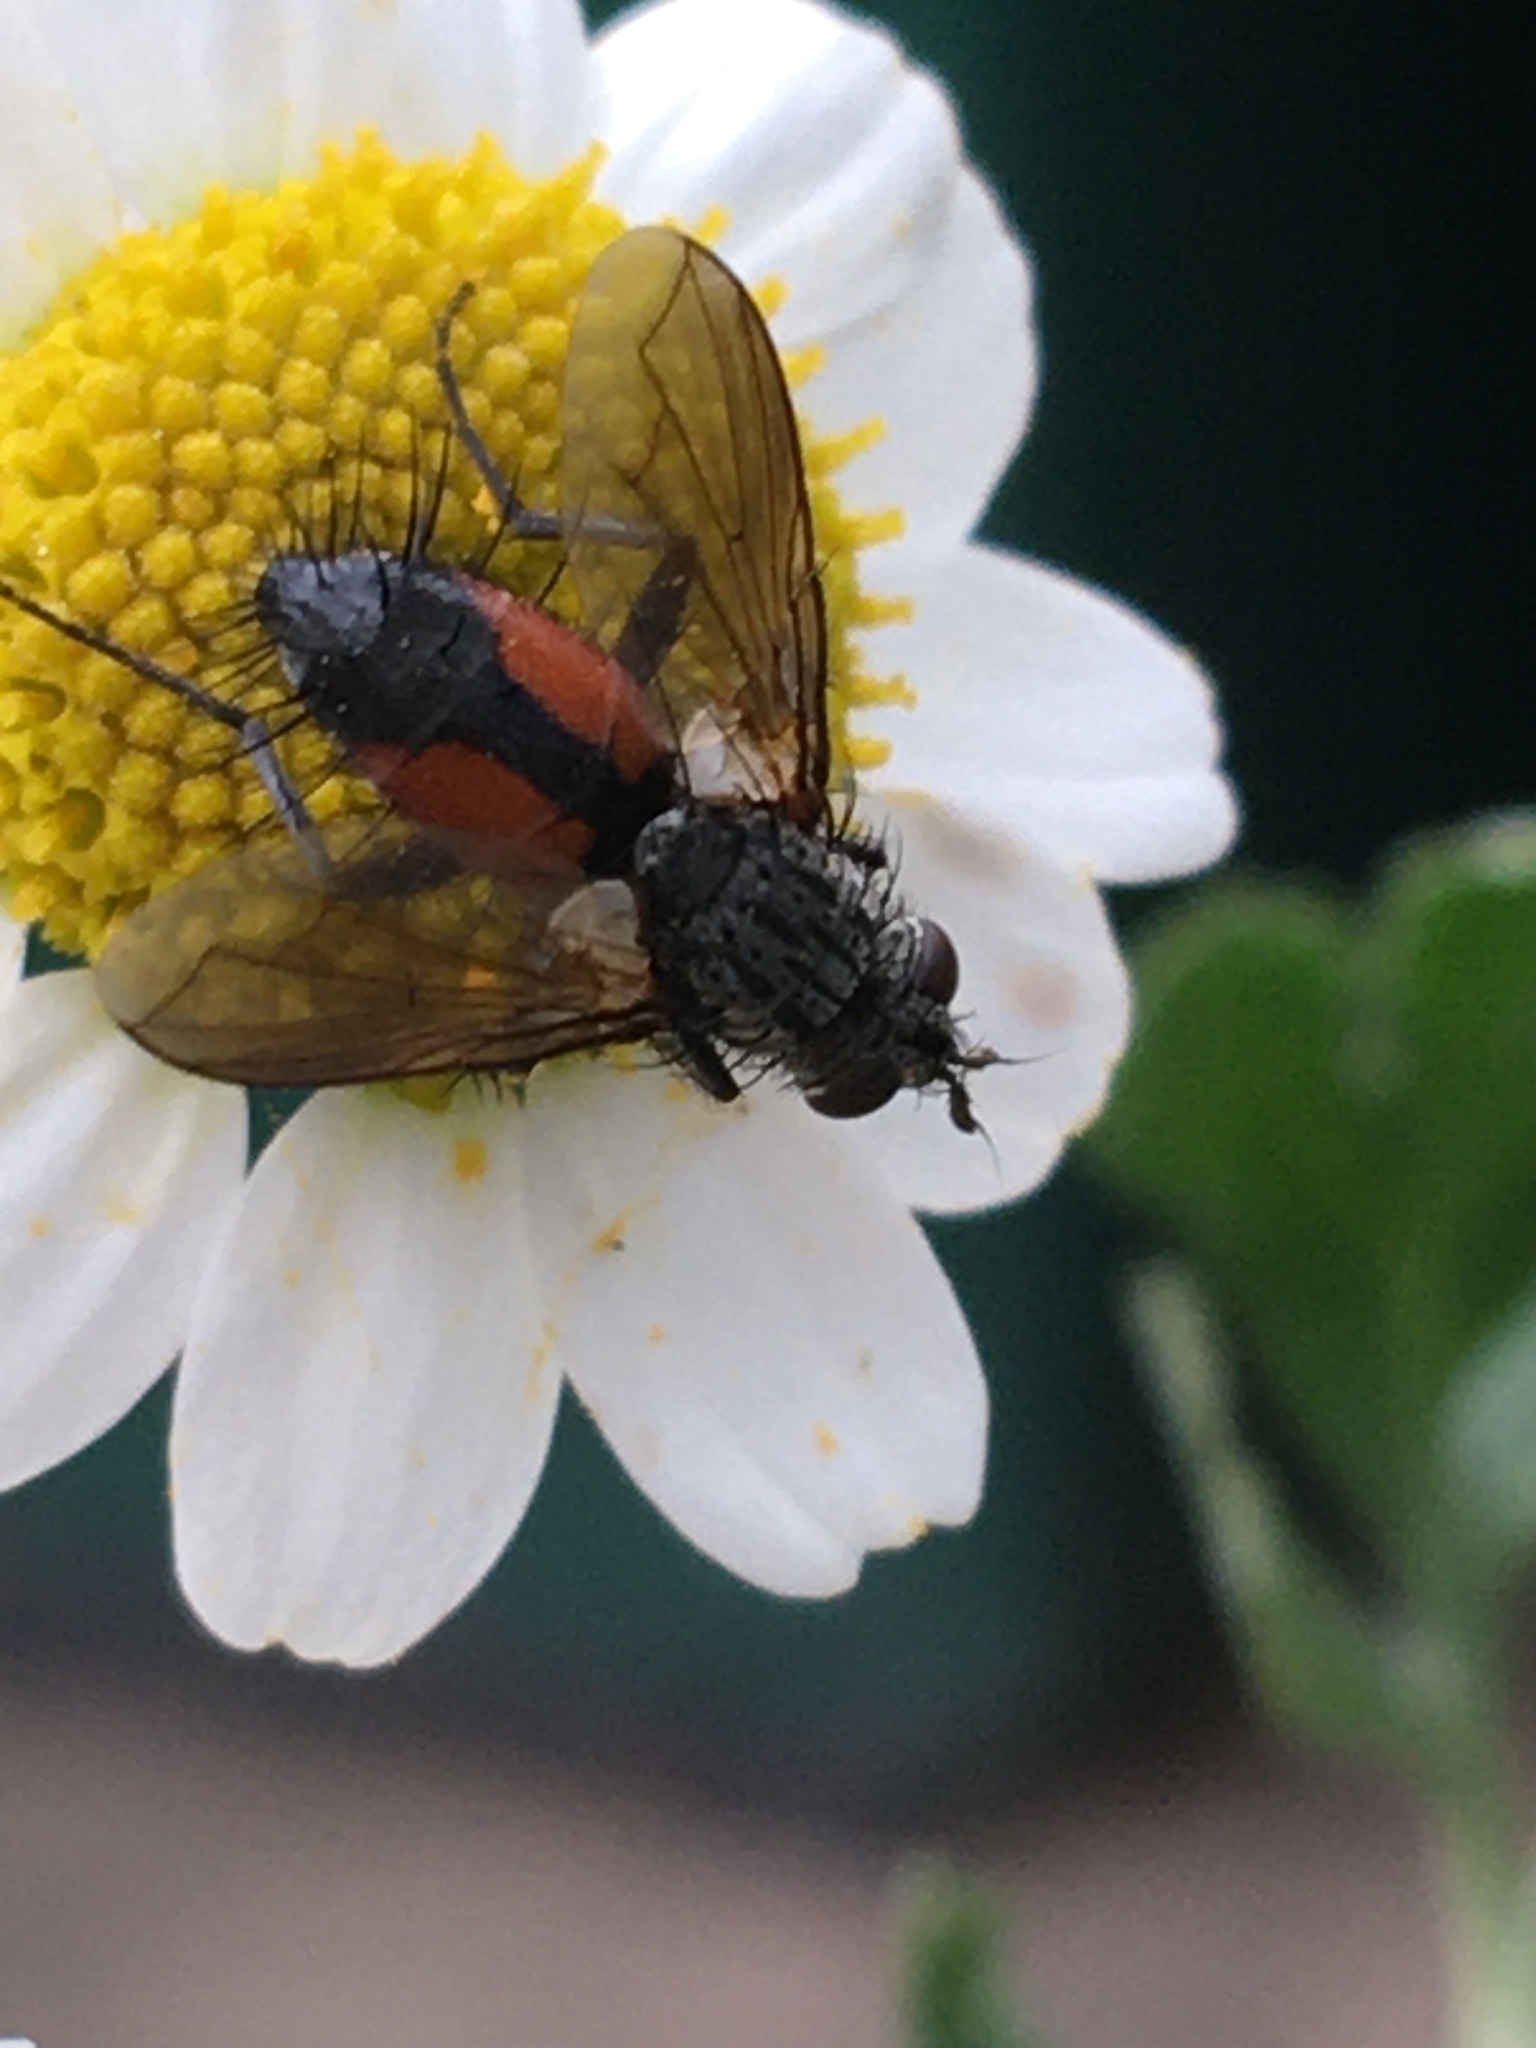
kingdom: Animalia
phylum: Arthropoda
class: Insecta
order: Diptera
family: Tachinidae
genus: Eriothrix
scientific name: Eriothrix rufomaculatus
